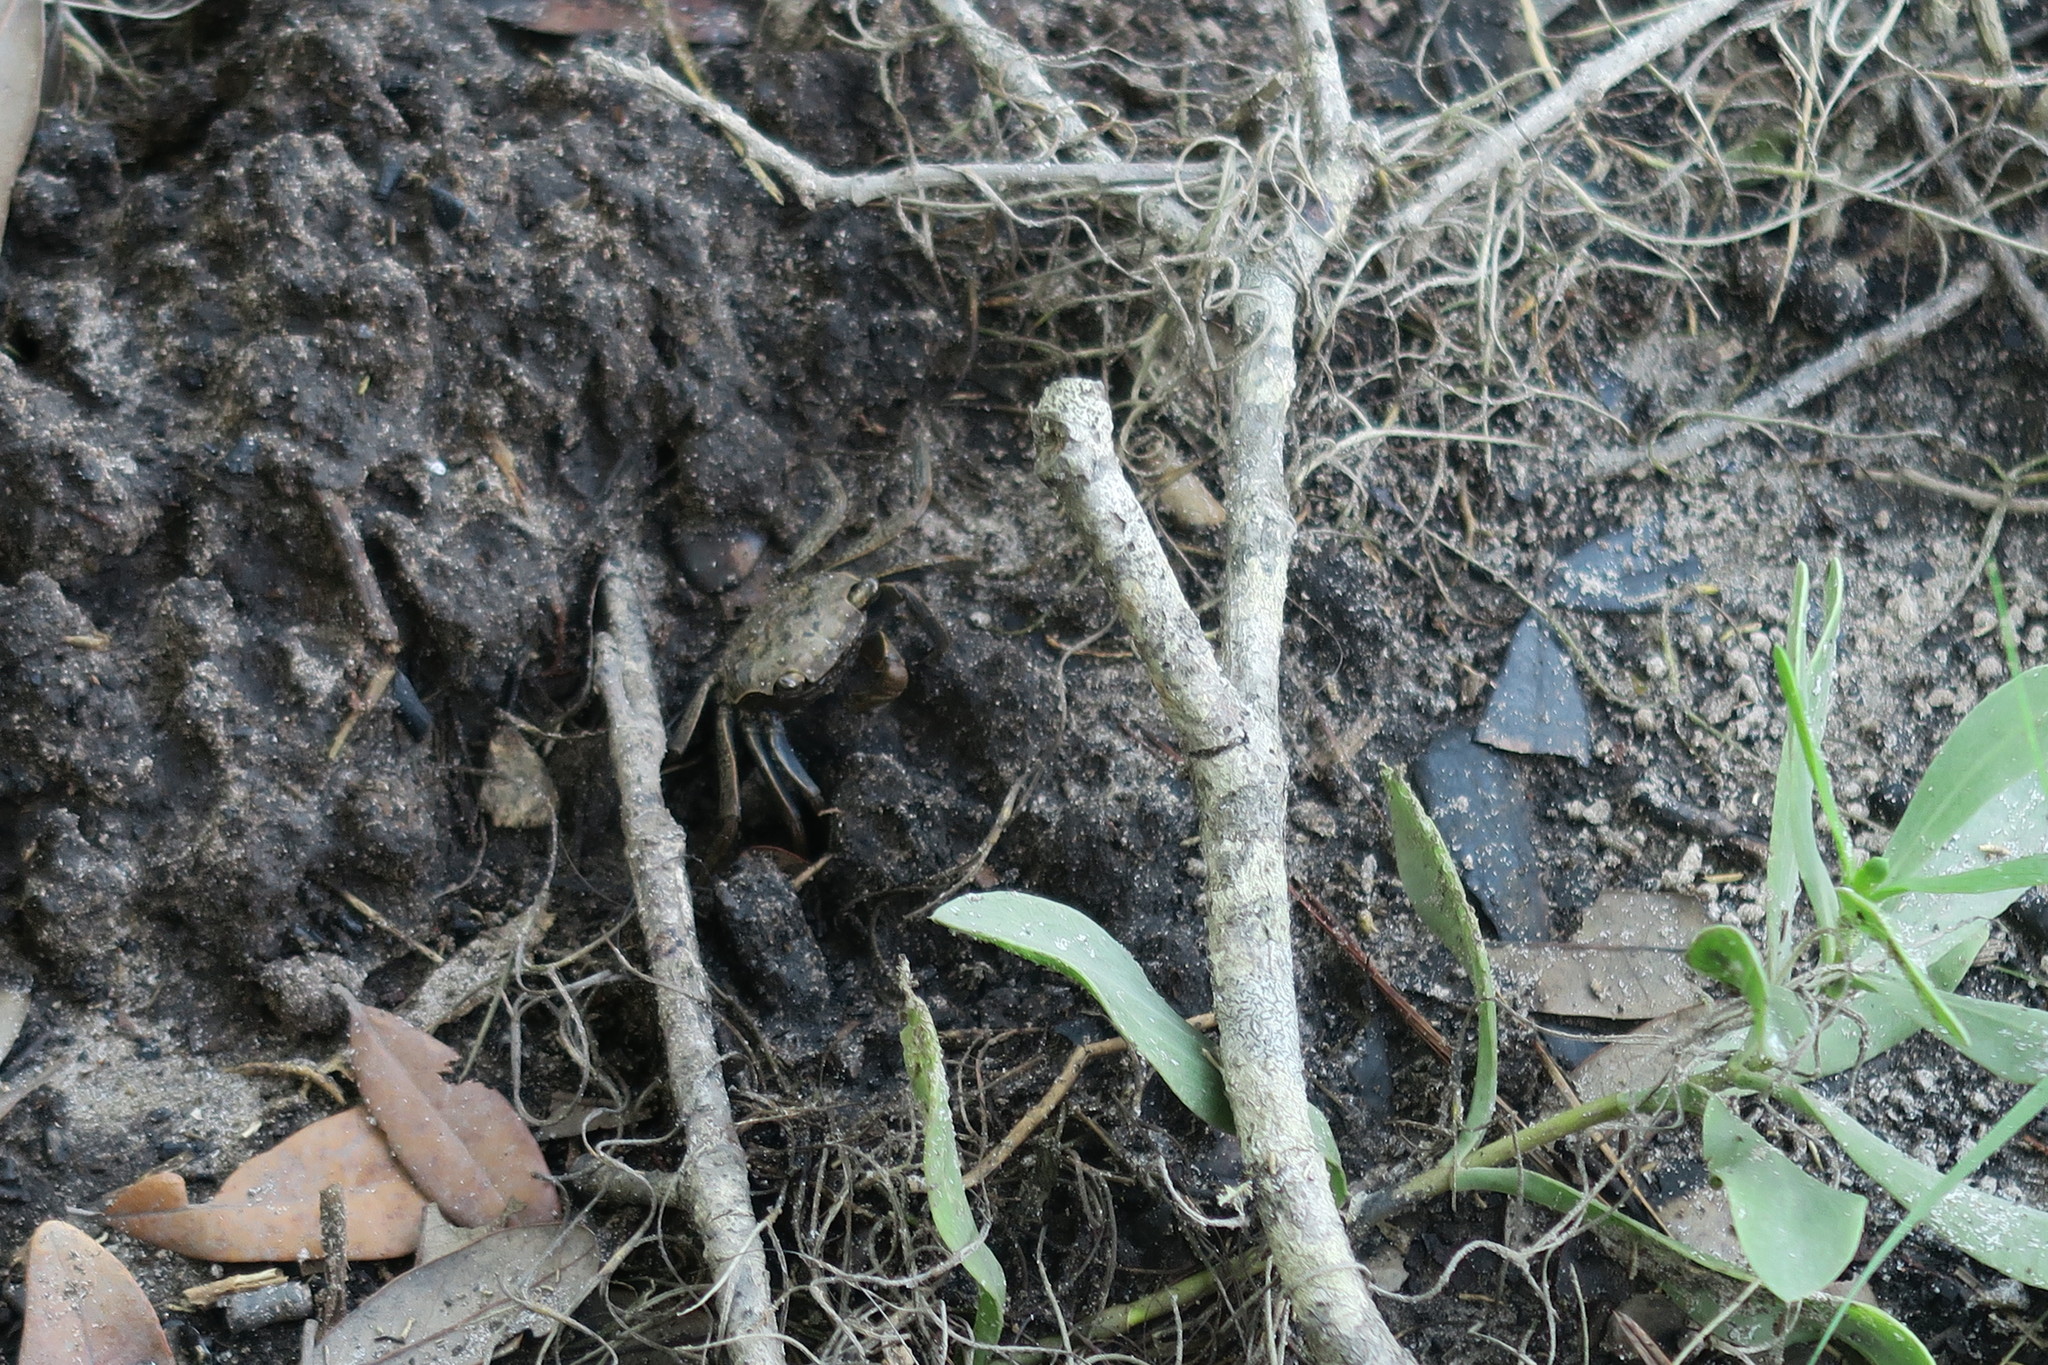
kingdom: Animalia
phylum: Arthropoda
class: Malacostraca
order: Decapoda
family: Sesarmidae
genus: Armases
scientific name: Armases cinereum
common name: Squareback marsh crab
